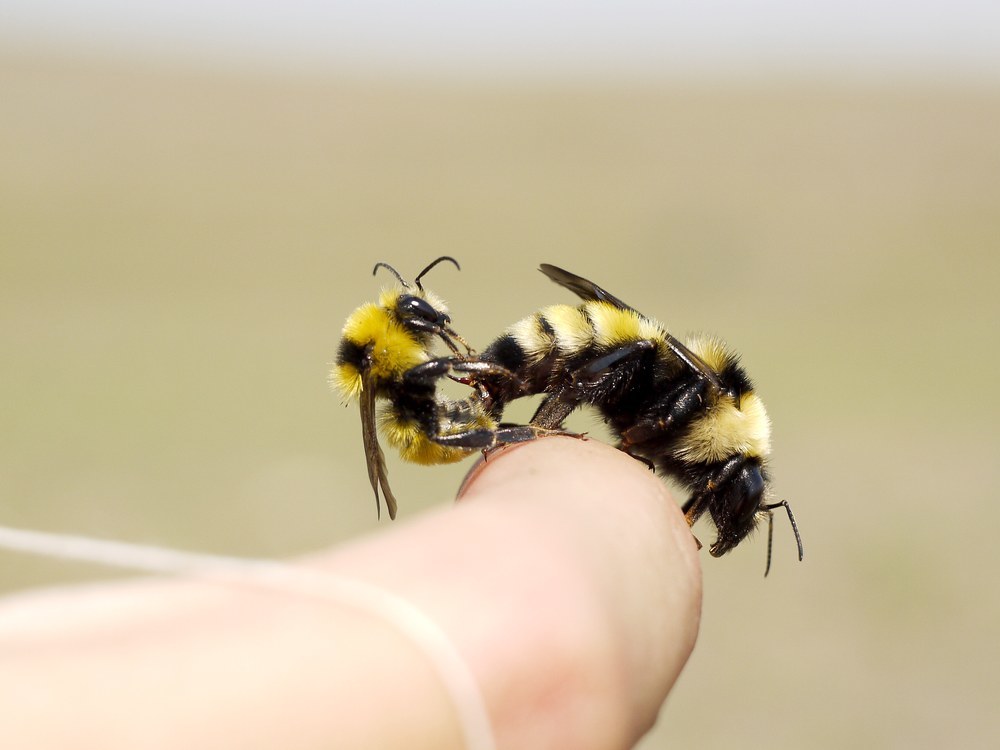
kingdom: Animalia
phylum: Arthropoda
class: Insecta
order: Hymenoptera
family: Apidae
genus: Bombus
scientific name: Bombus zonatus
